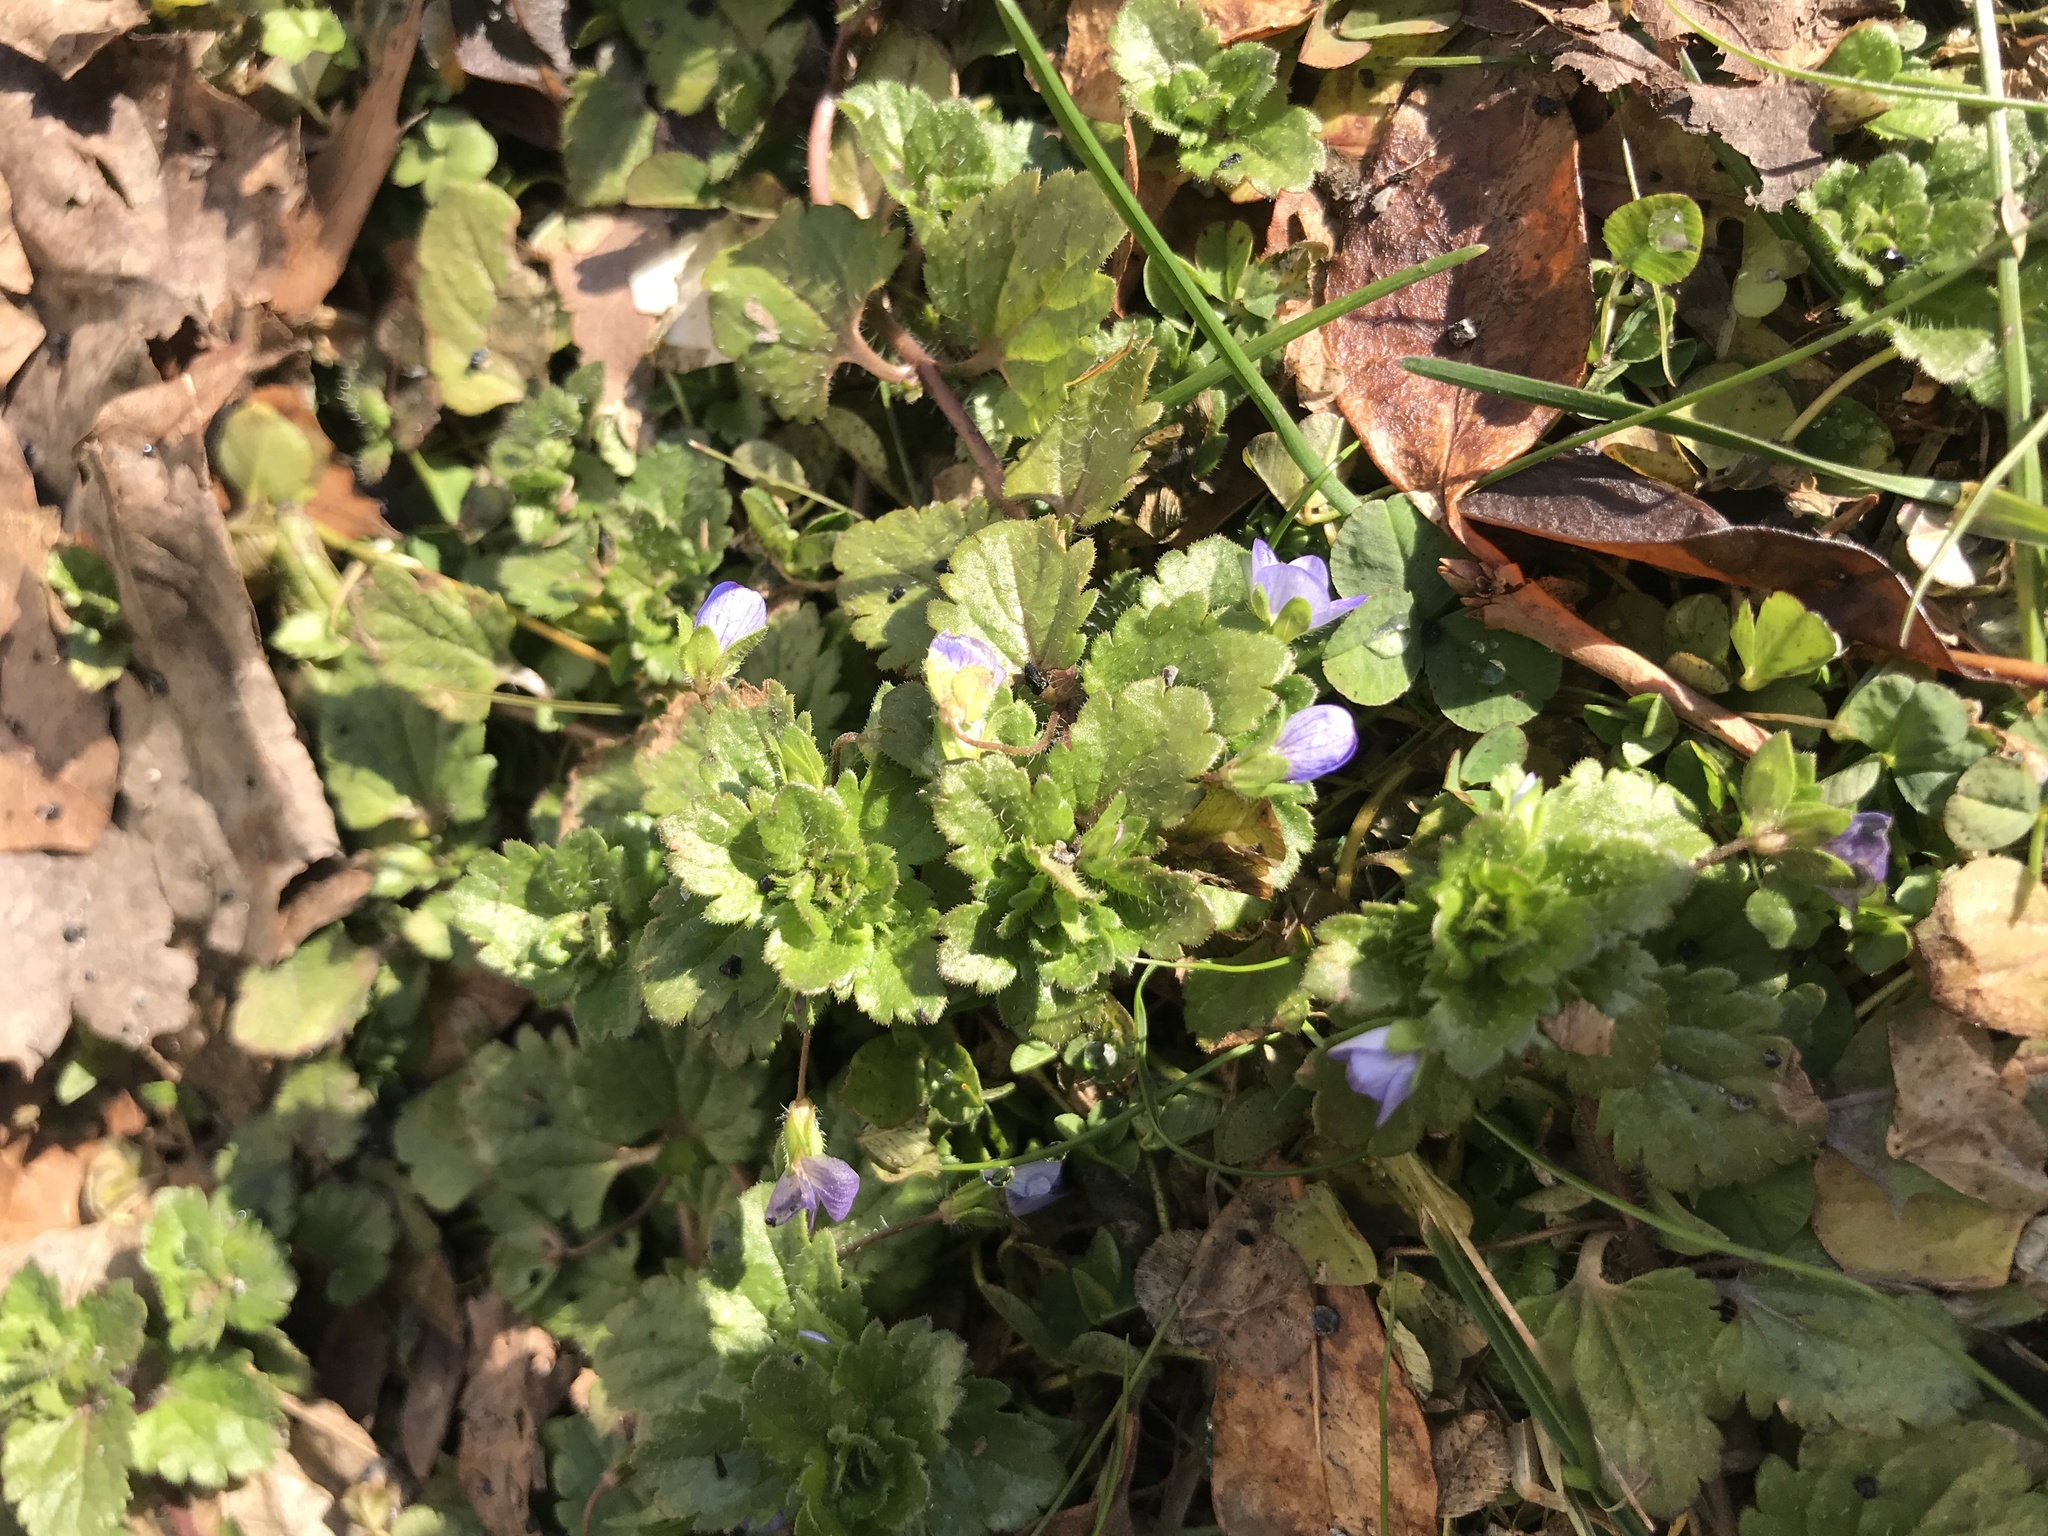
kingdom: Plantae
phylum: Tracheophyta
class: Magnoliopsida
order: Lamiales
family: Plantaginaceae
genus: Veronica
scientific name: Veronica persica
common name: Common field-speedwell
